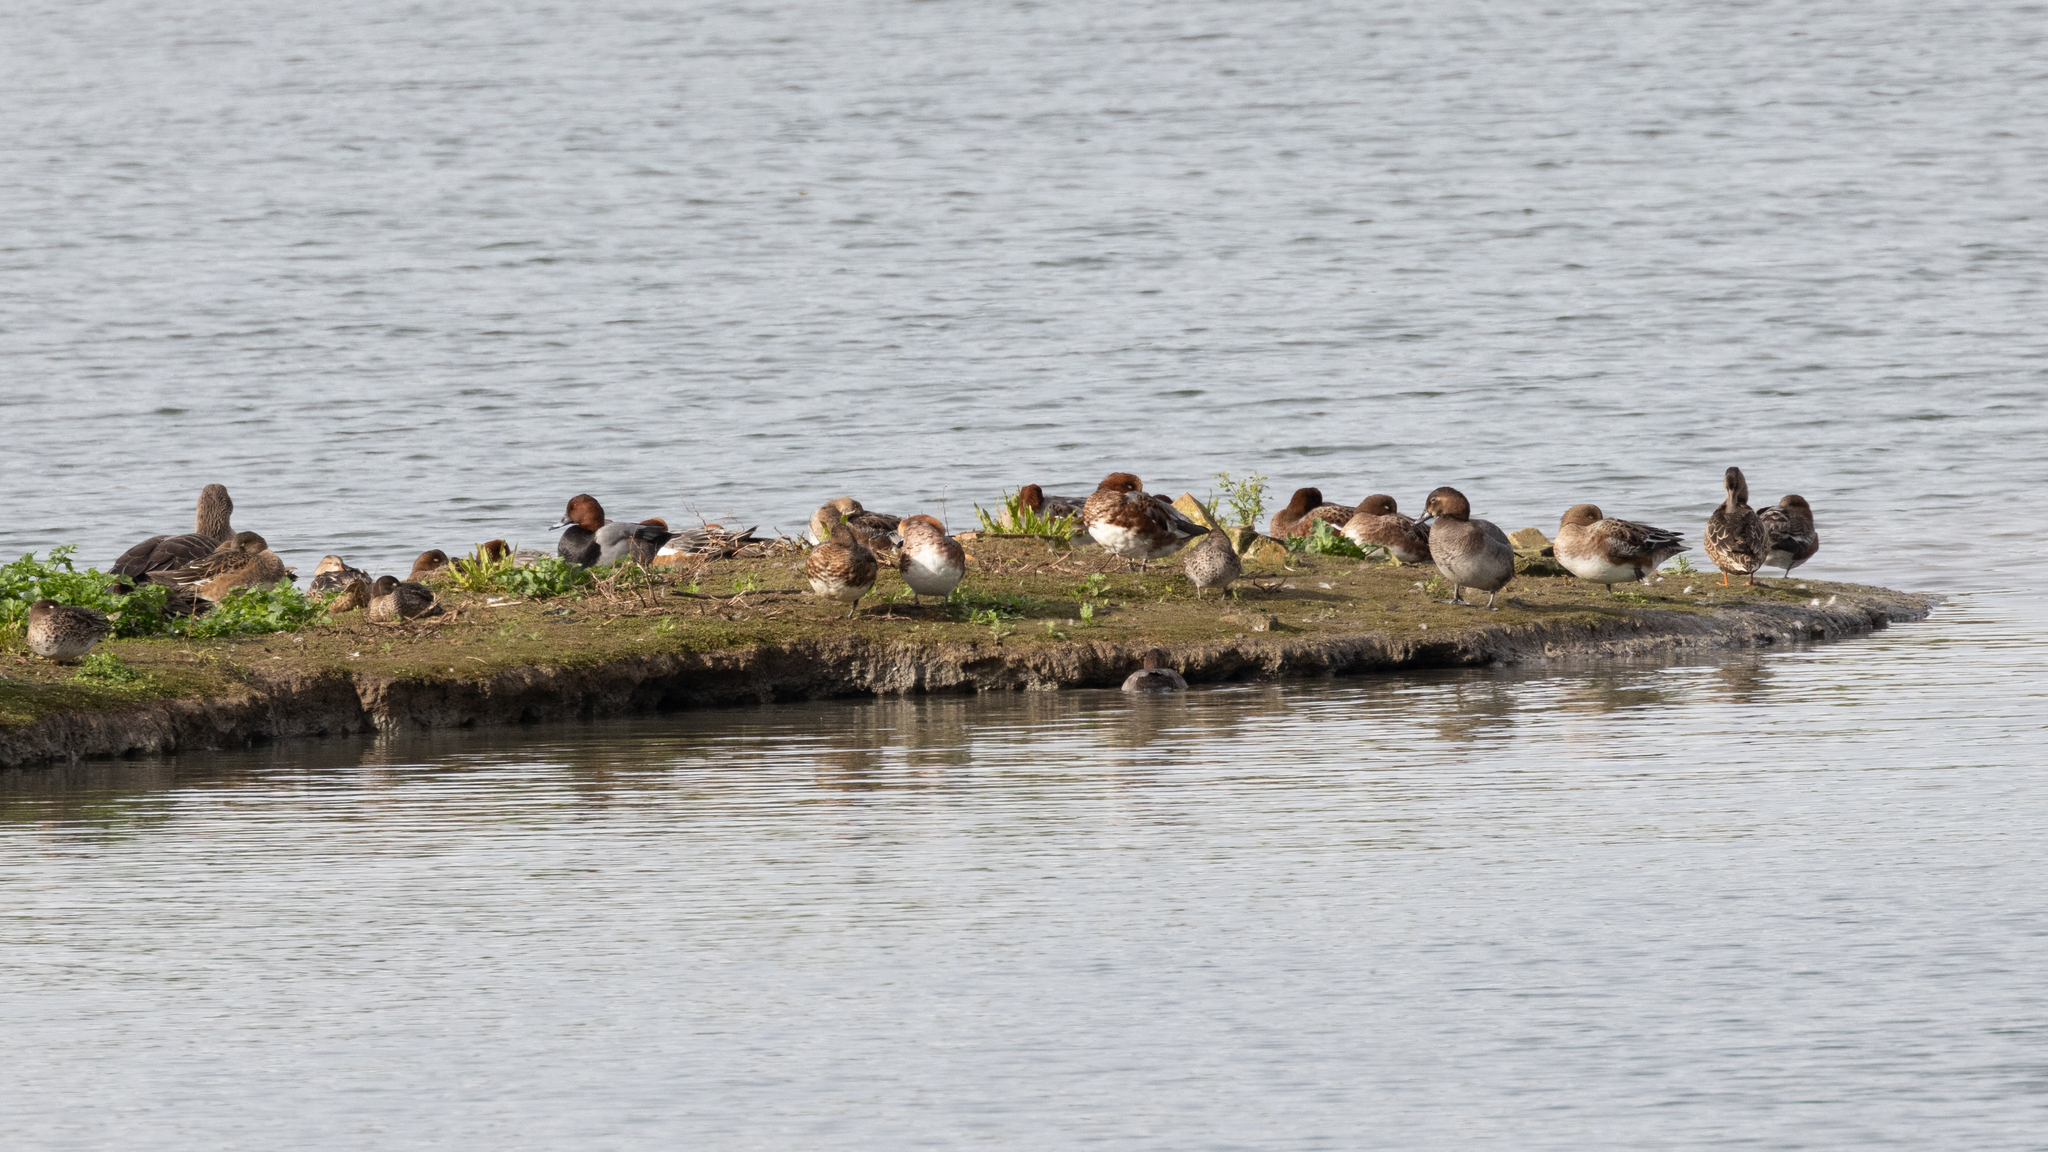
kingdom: Animalia
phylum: Chordata
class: Aves
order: Anseriformes
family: Anatidae
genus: Mareca
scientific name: Mareca penelope
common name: Eurasian wigeon
